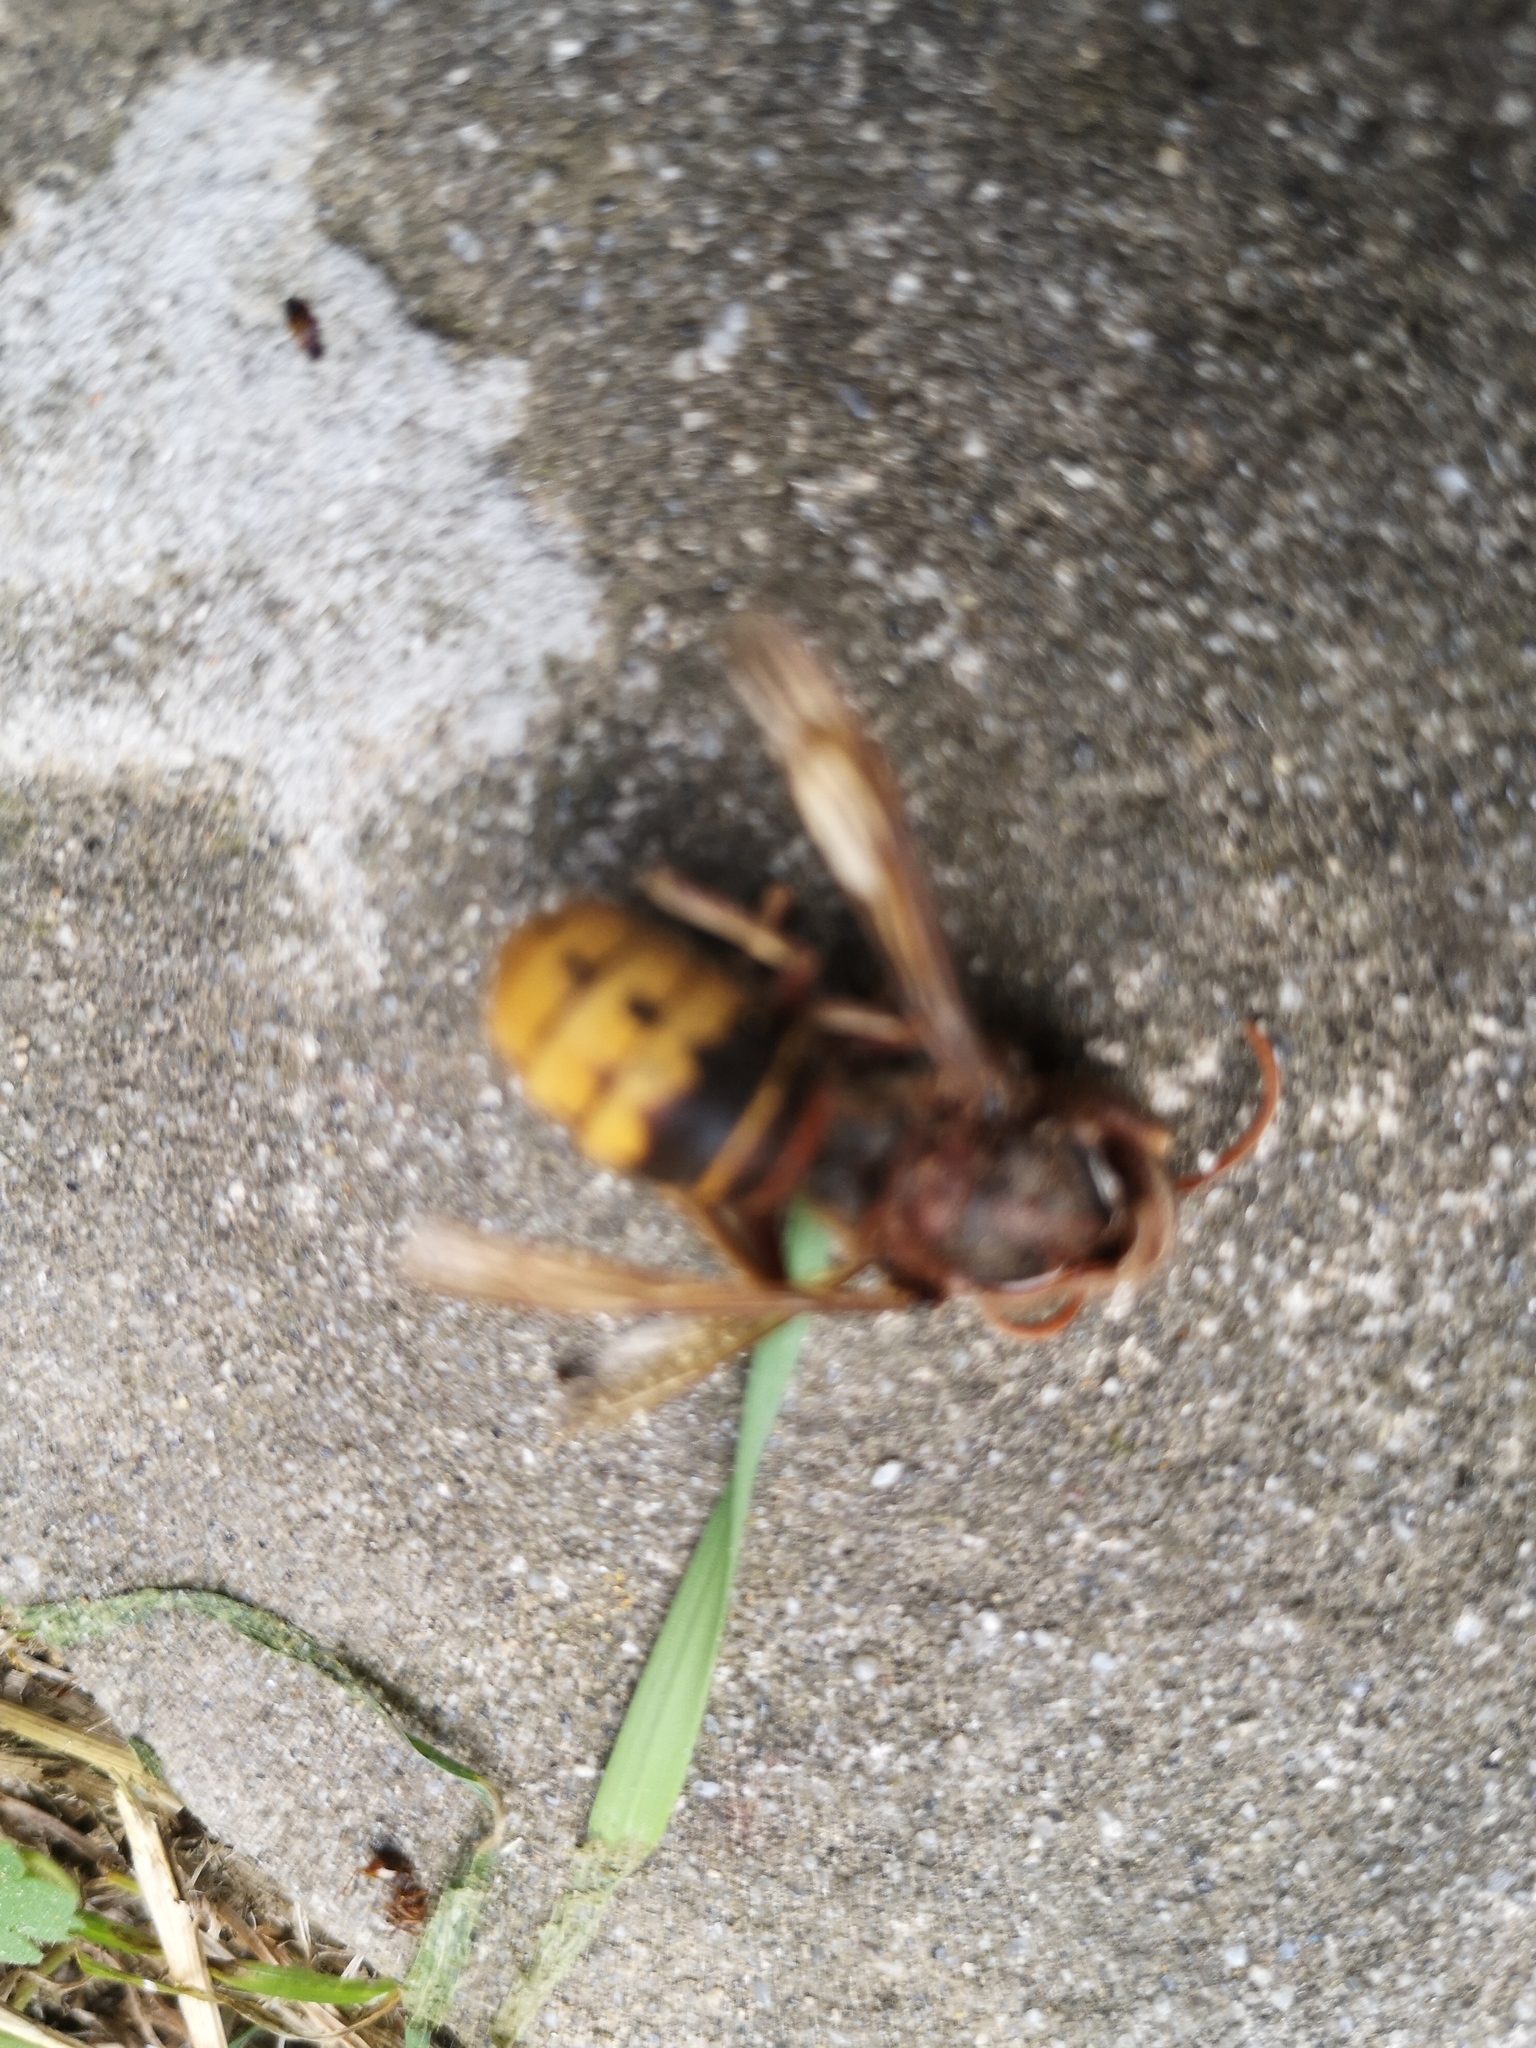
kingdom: Animalia
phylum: Arthropoda
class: Insecta
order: Hymenoptera
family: Vespidae
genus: Vespa
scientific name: Vespa crabro
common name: Hornet
